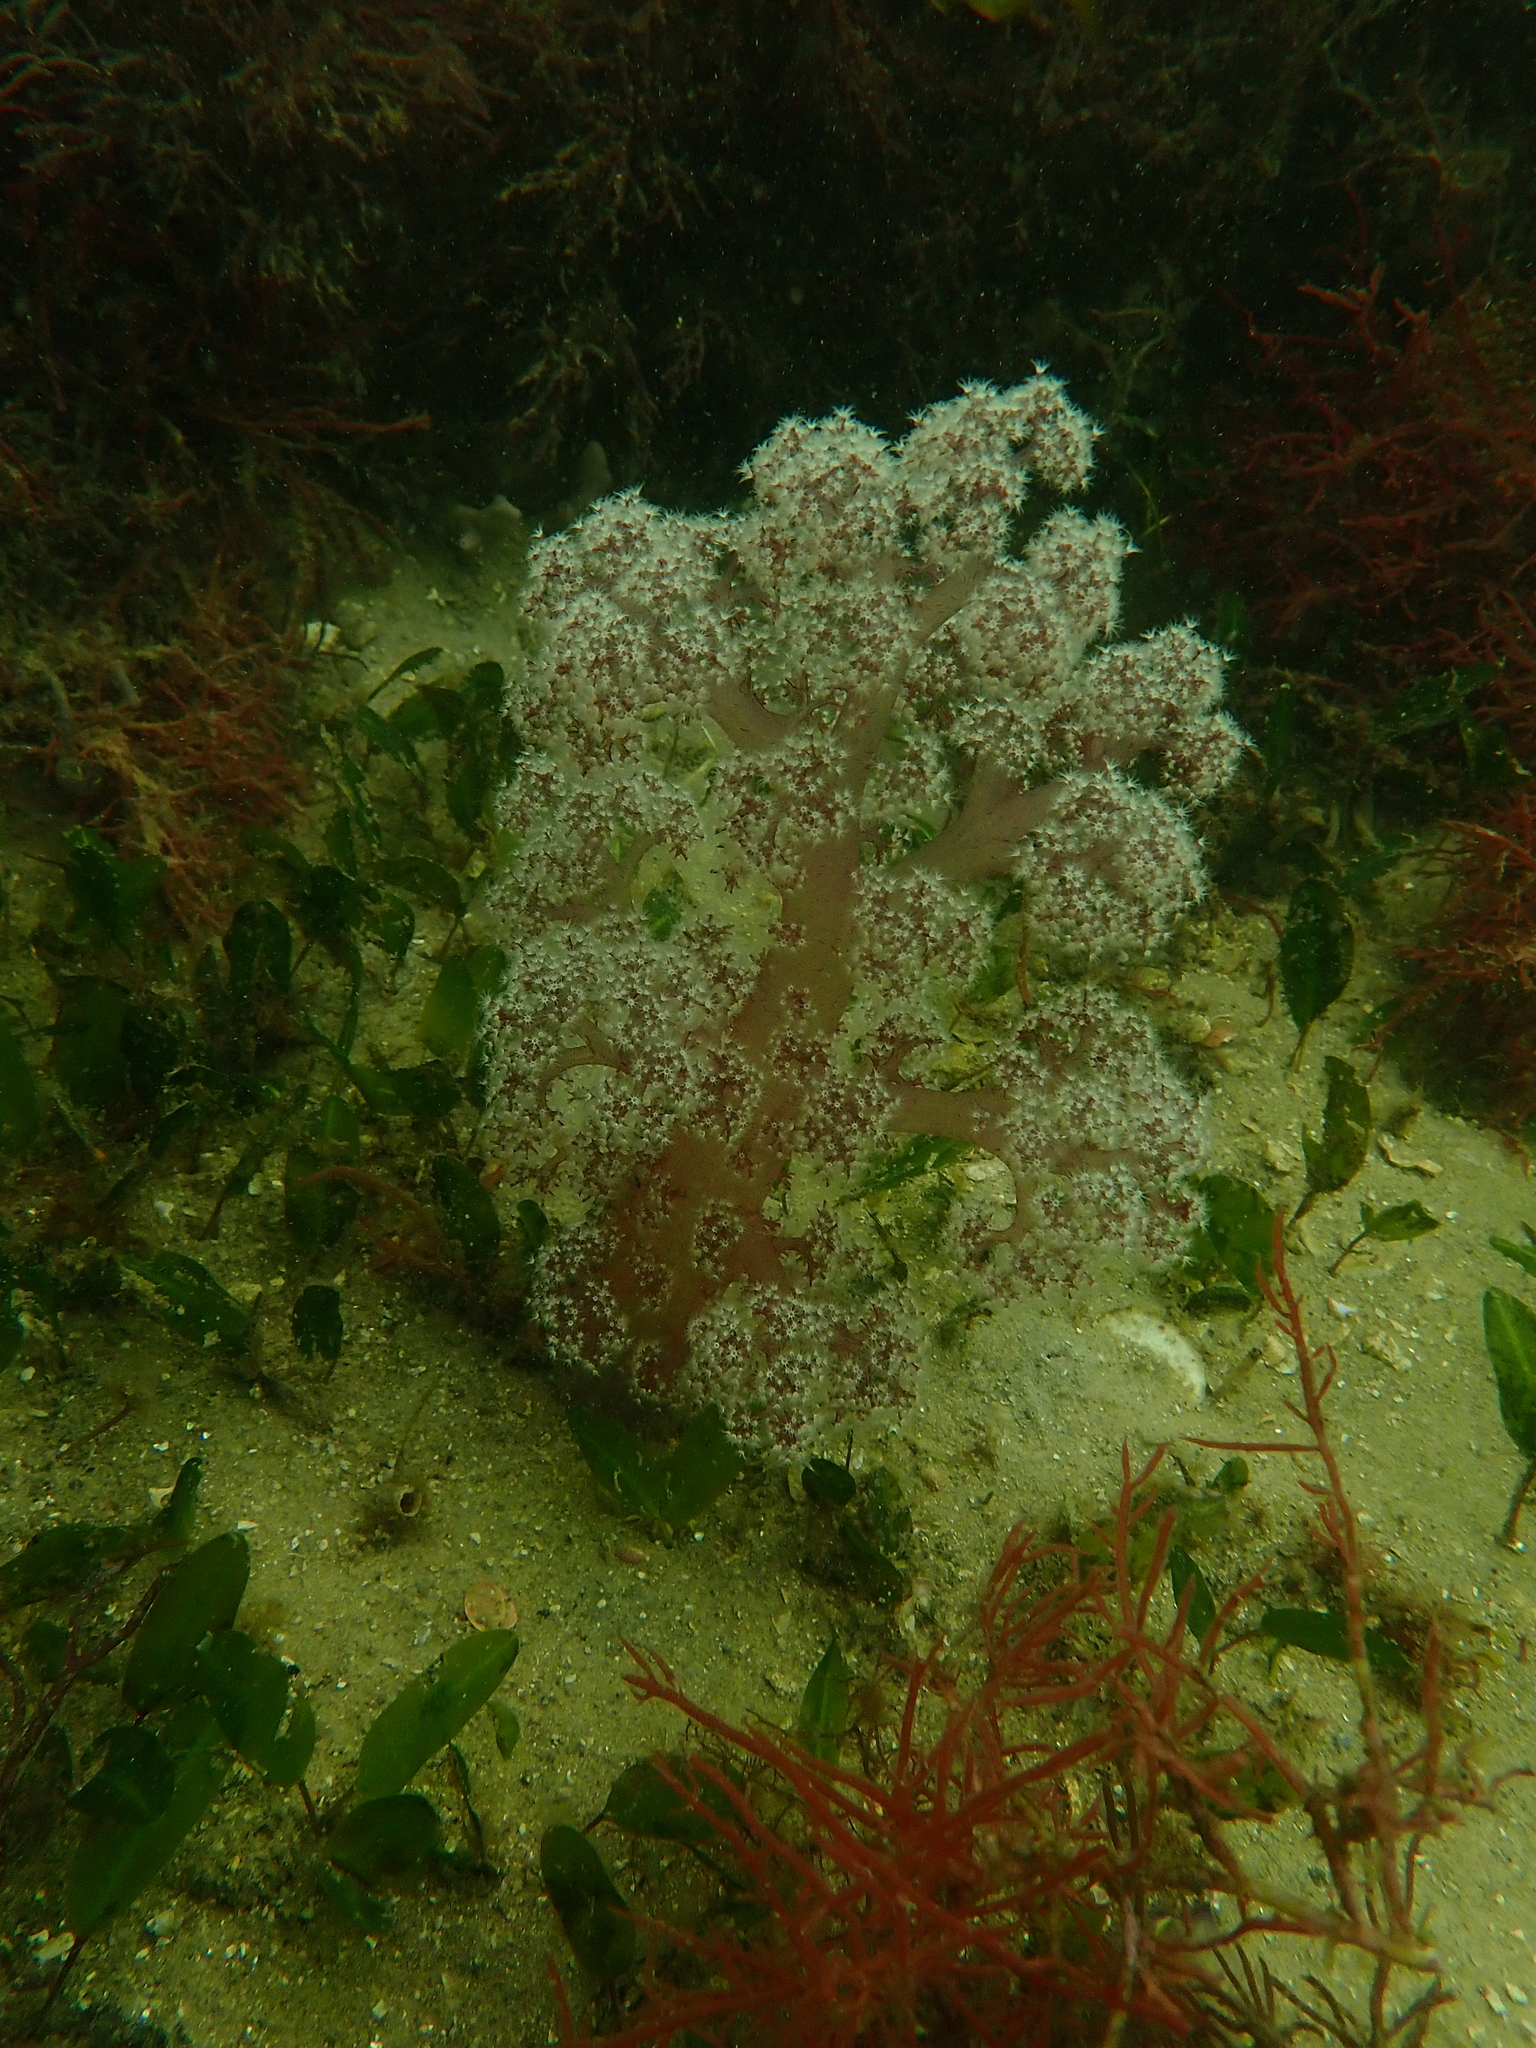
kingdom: Animalia
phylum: Cnidaria
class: Anthozoa
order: Malacalcyonacea
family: Nephtheidae
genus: Dendronephthya
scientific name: Dendronephthya australis
